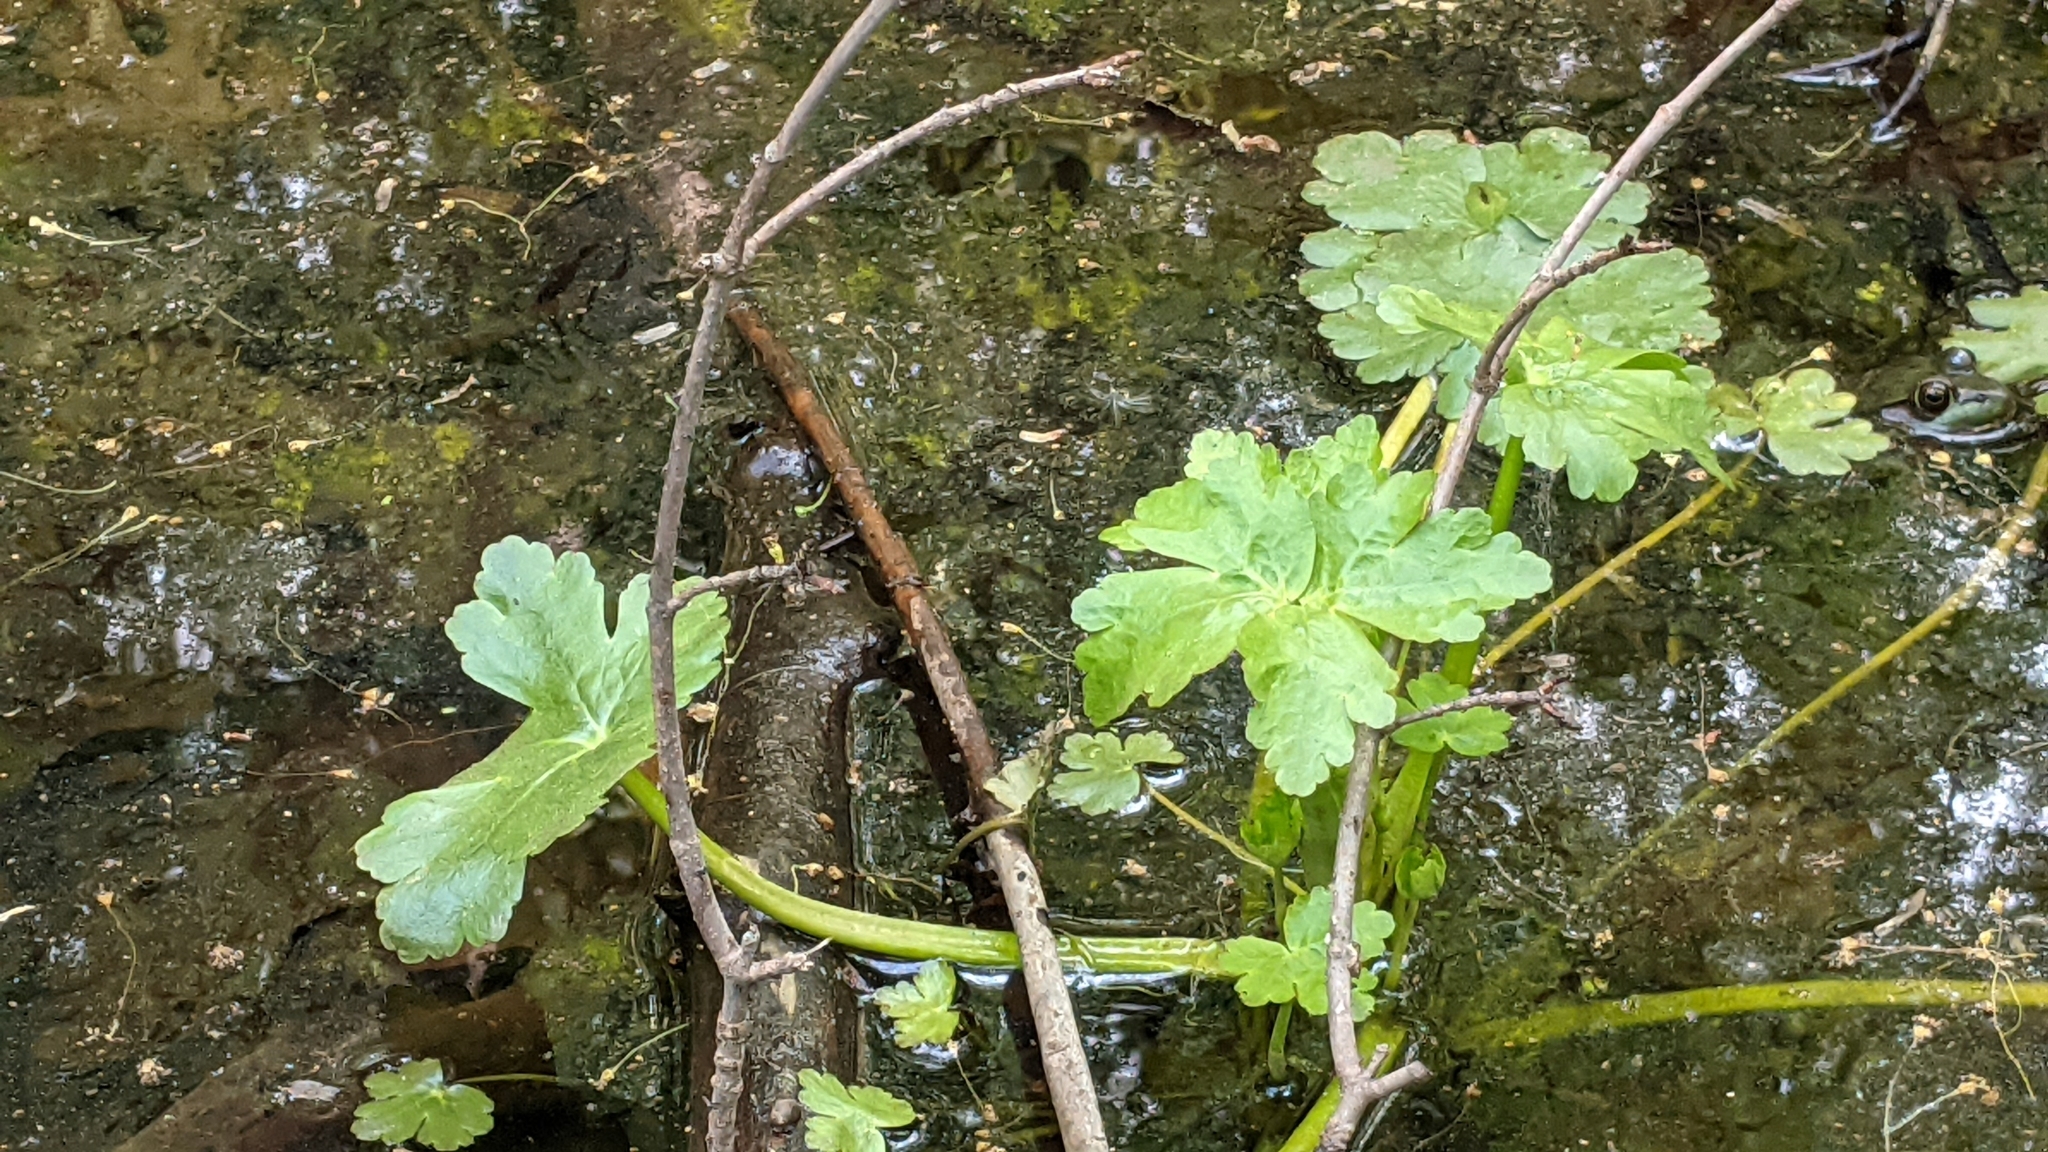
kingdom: Plantae
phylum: Tracheophyta
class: Magnoliopsida
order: Ranunculales
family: Ranunculaceae
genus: Ranunculus
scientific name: Ranunculus sceleratus
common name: Celery-leaved buttercup
